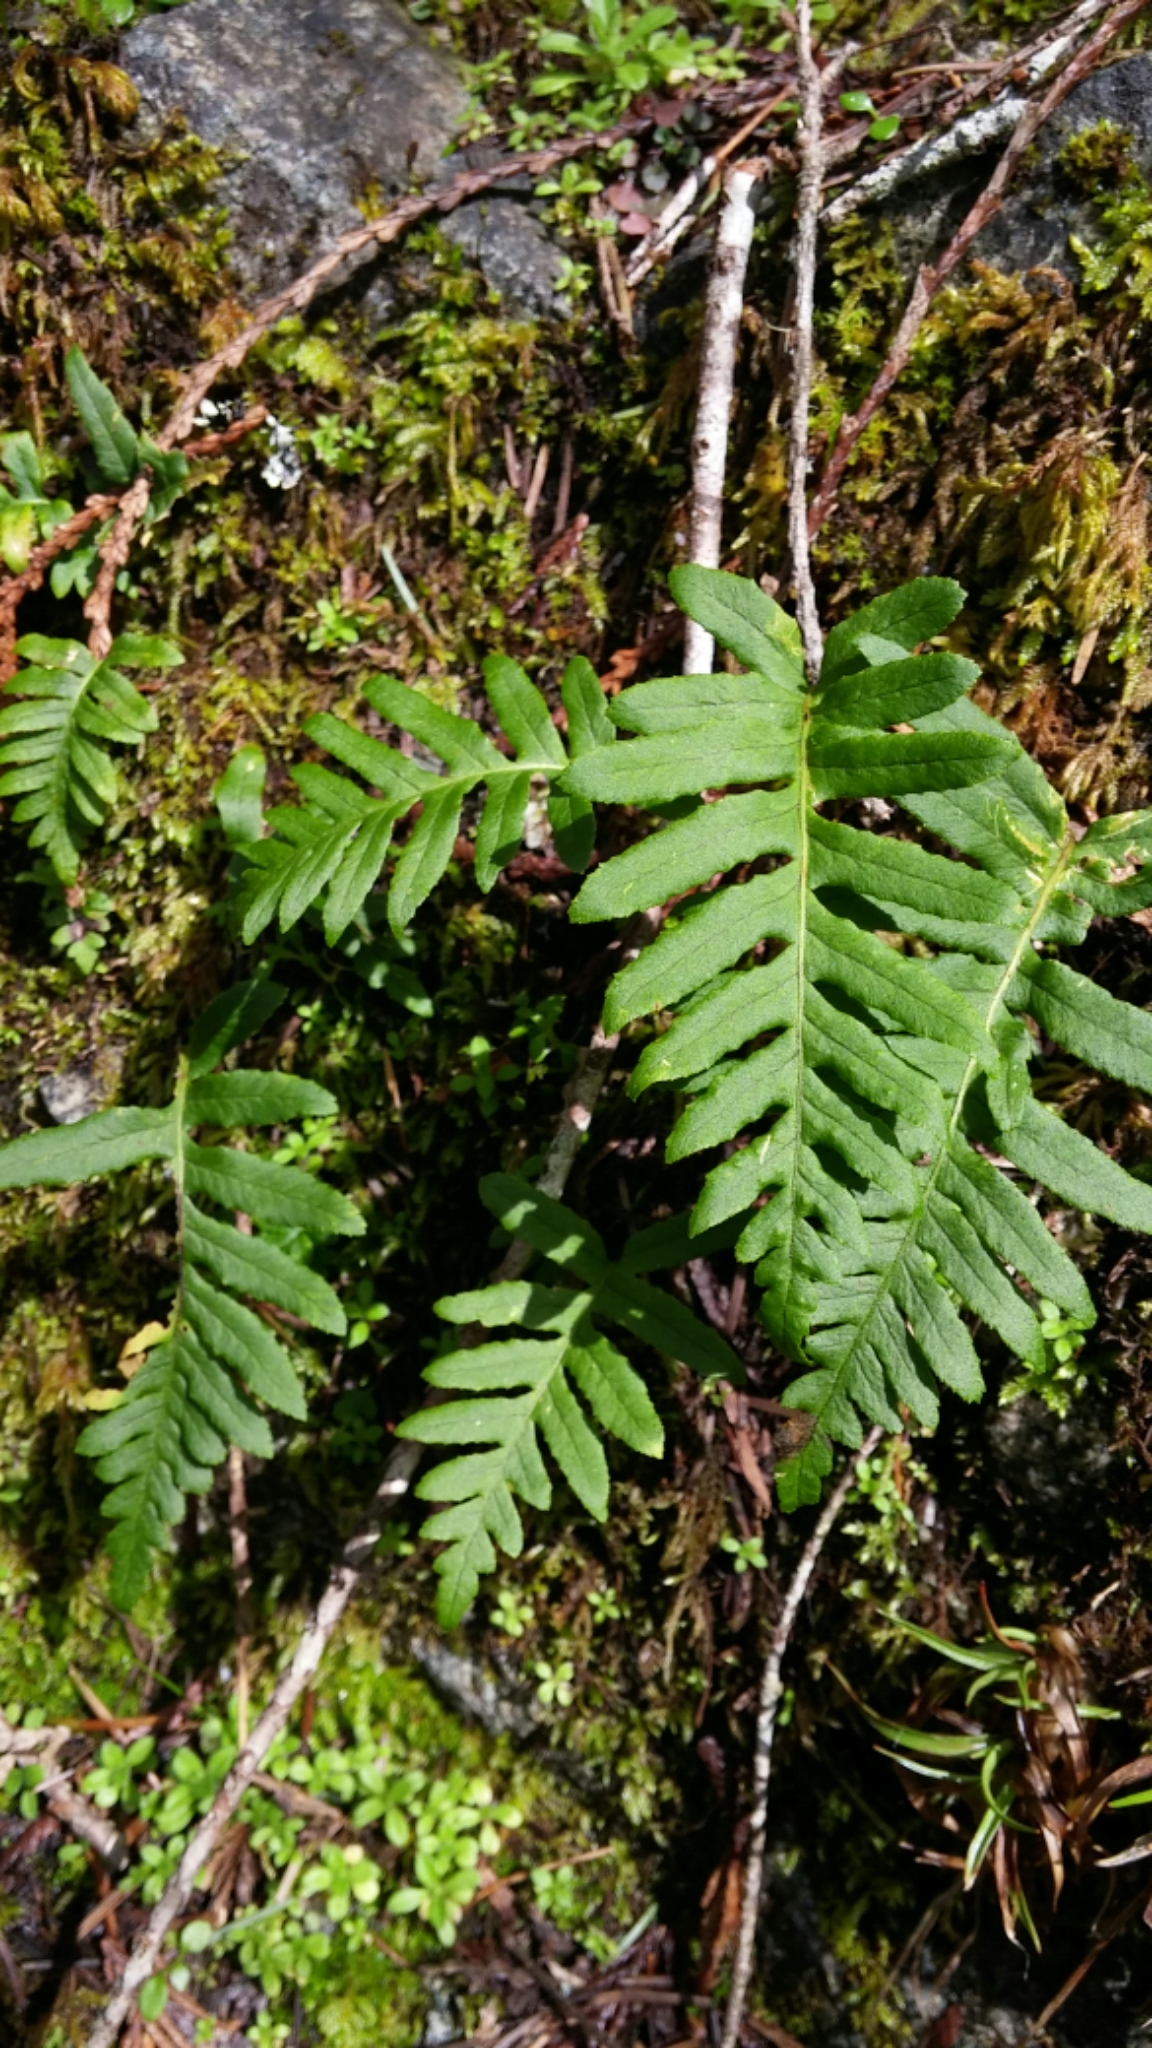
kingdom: Plantae
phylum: Tracheophyta
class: Polypodiopsida
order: Polypodiales
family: Polypodiaceae
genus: Polypodium
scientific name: Polypodium glycyrrhiza
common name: Licorice fern
